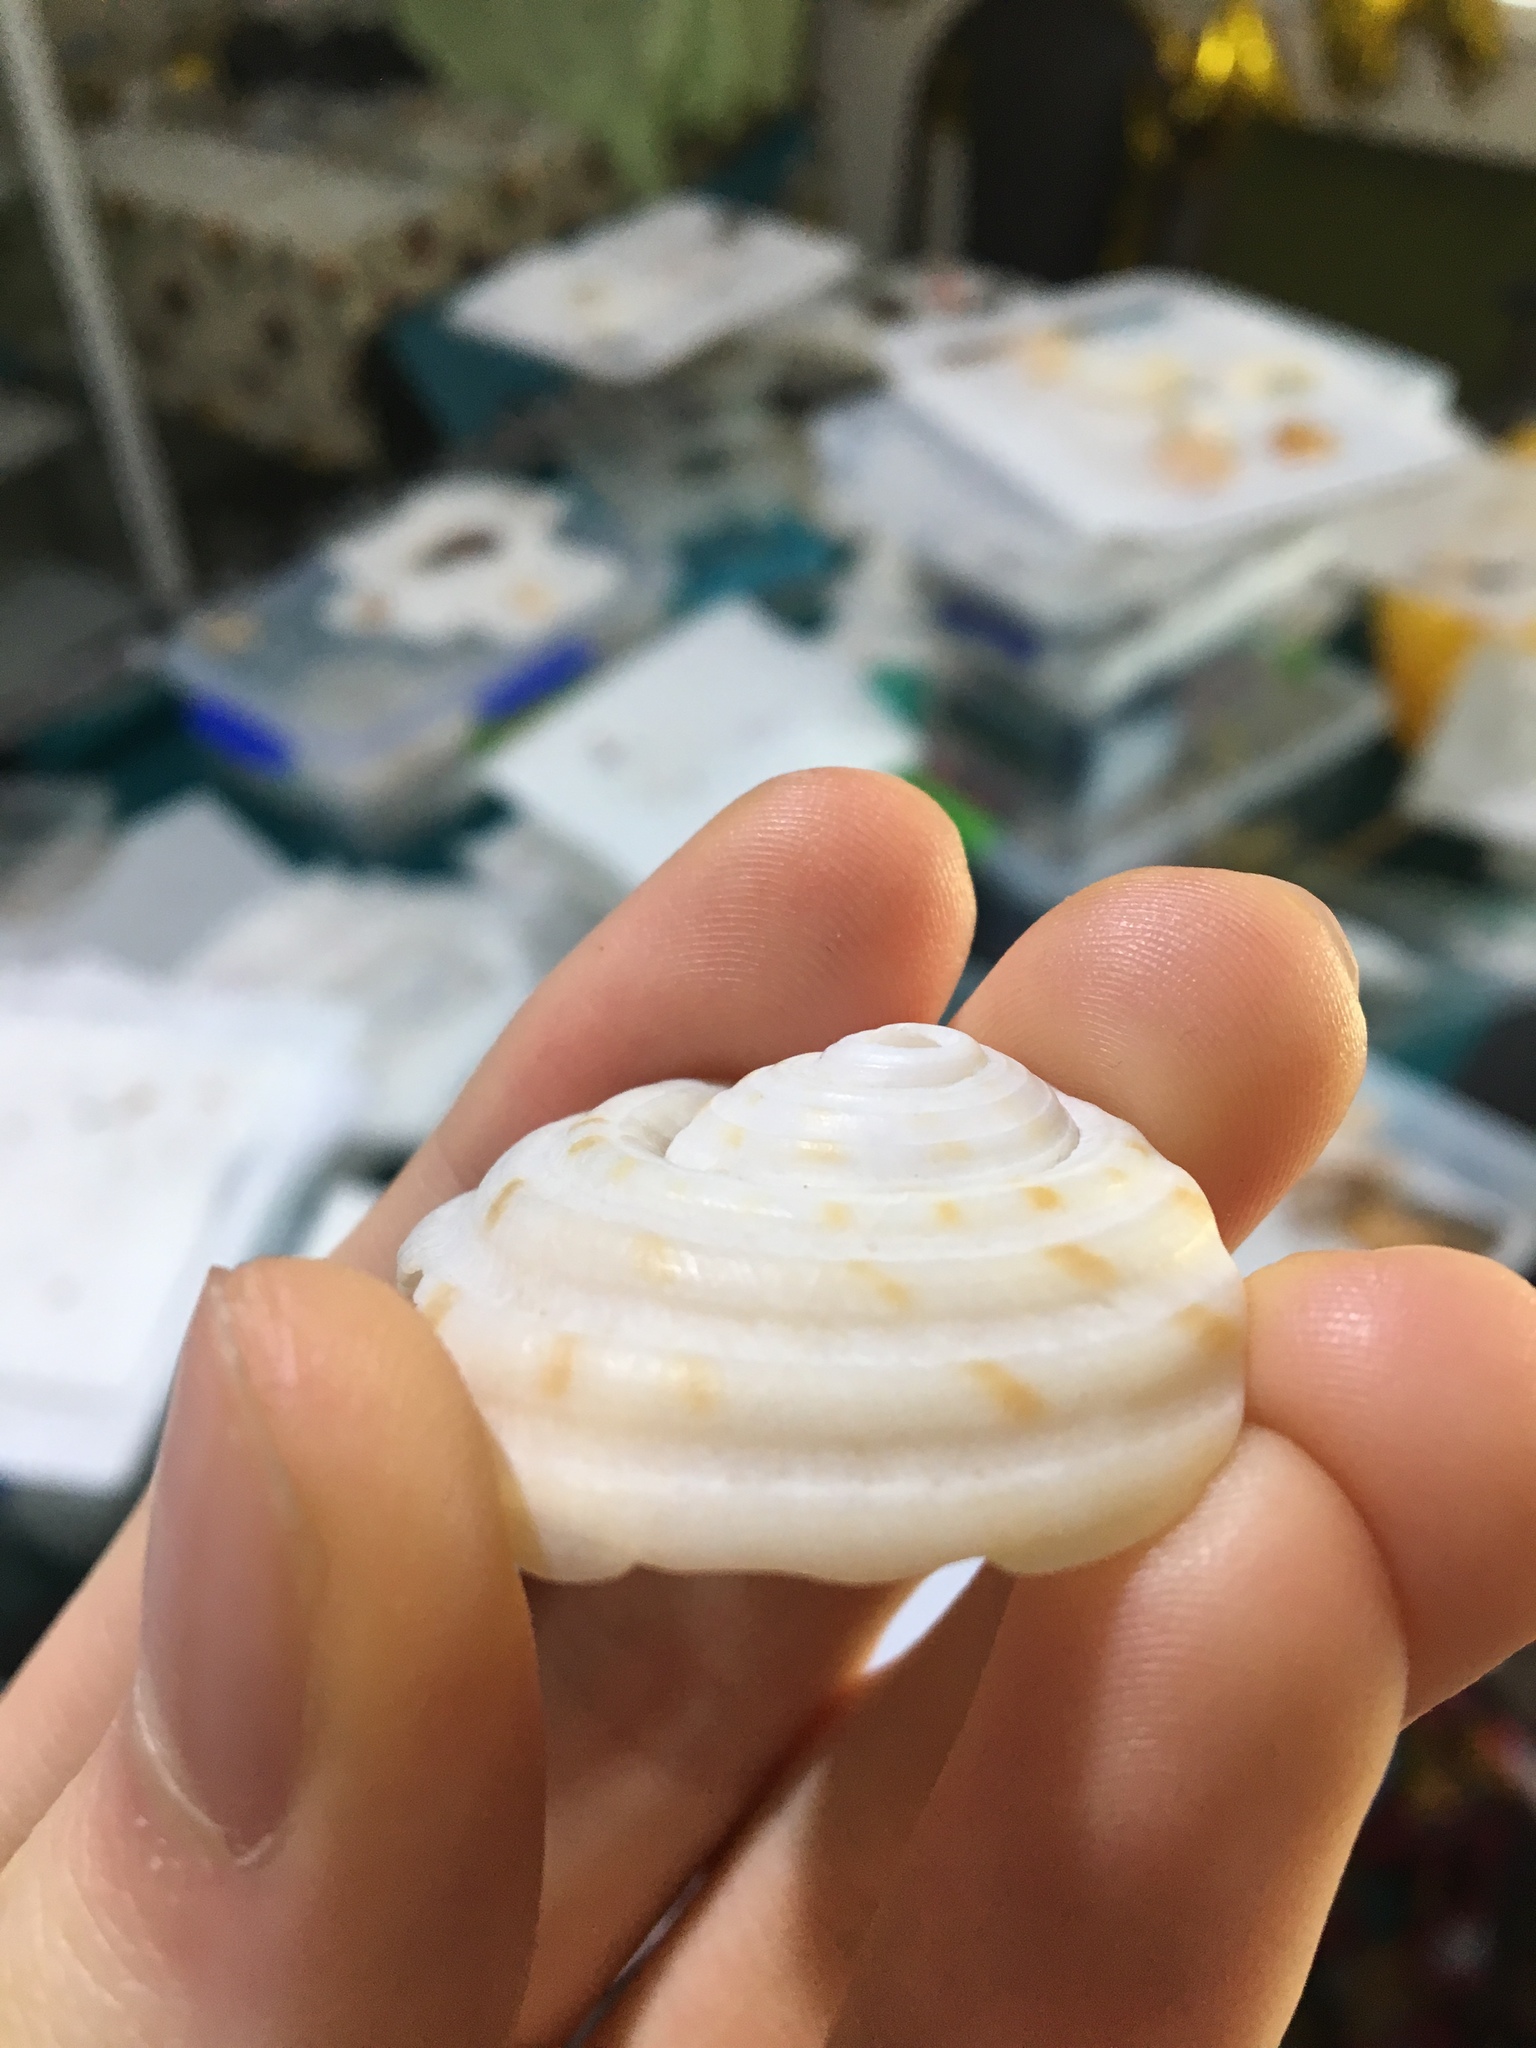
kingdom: Animalia
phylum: Mollusca
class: Gastropoda
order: Littorinimorpha
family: Tonnidae
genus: Tonna
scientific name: Tonna tankervillii
